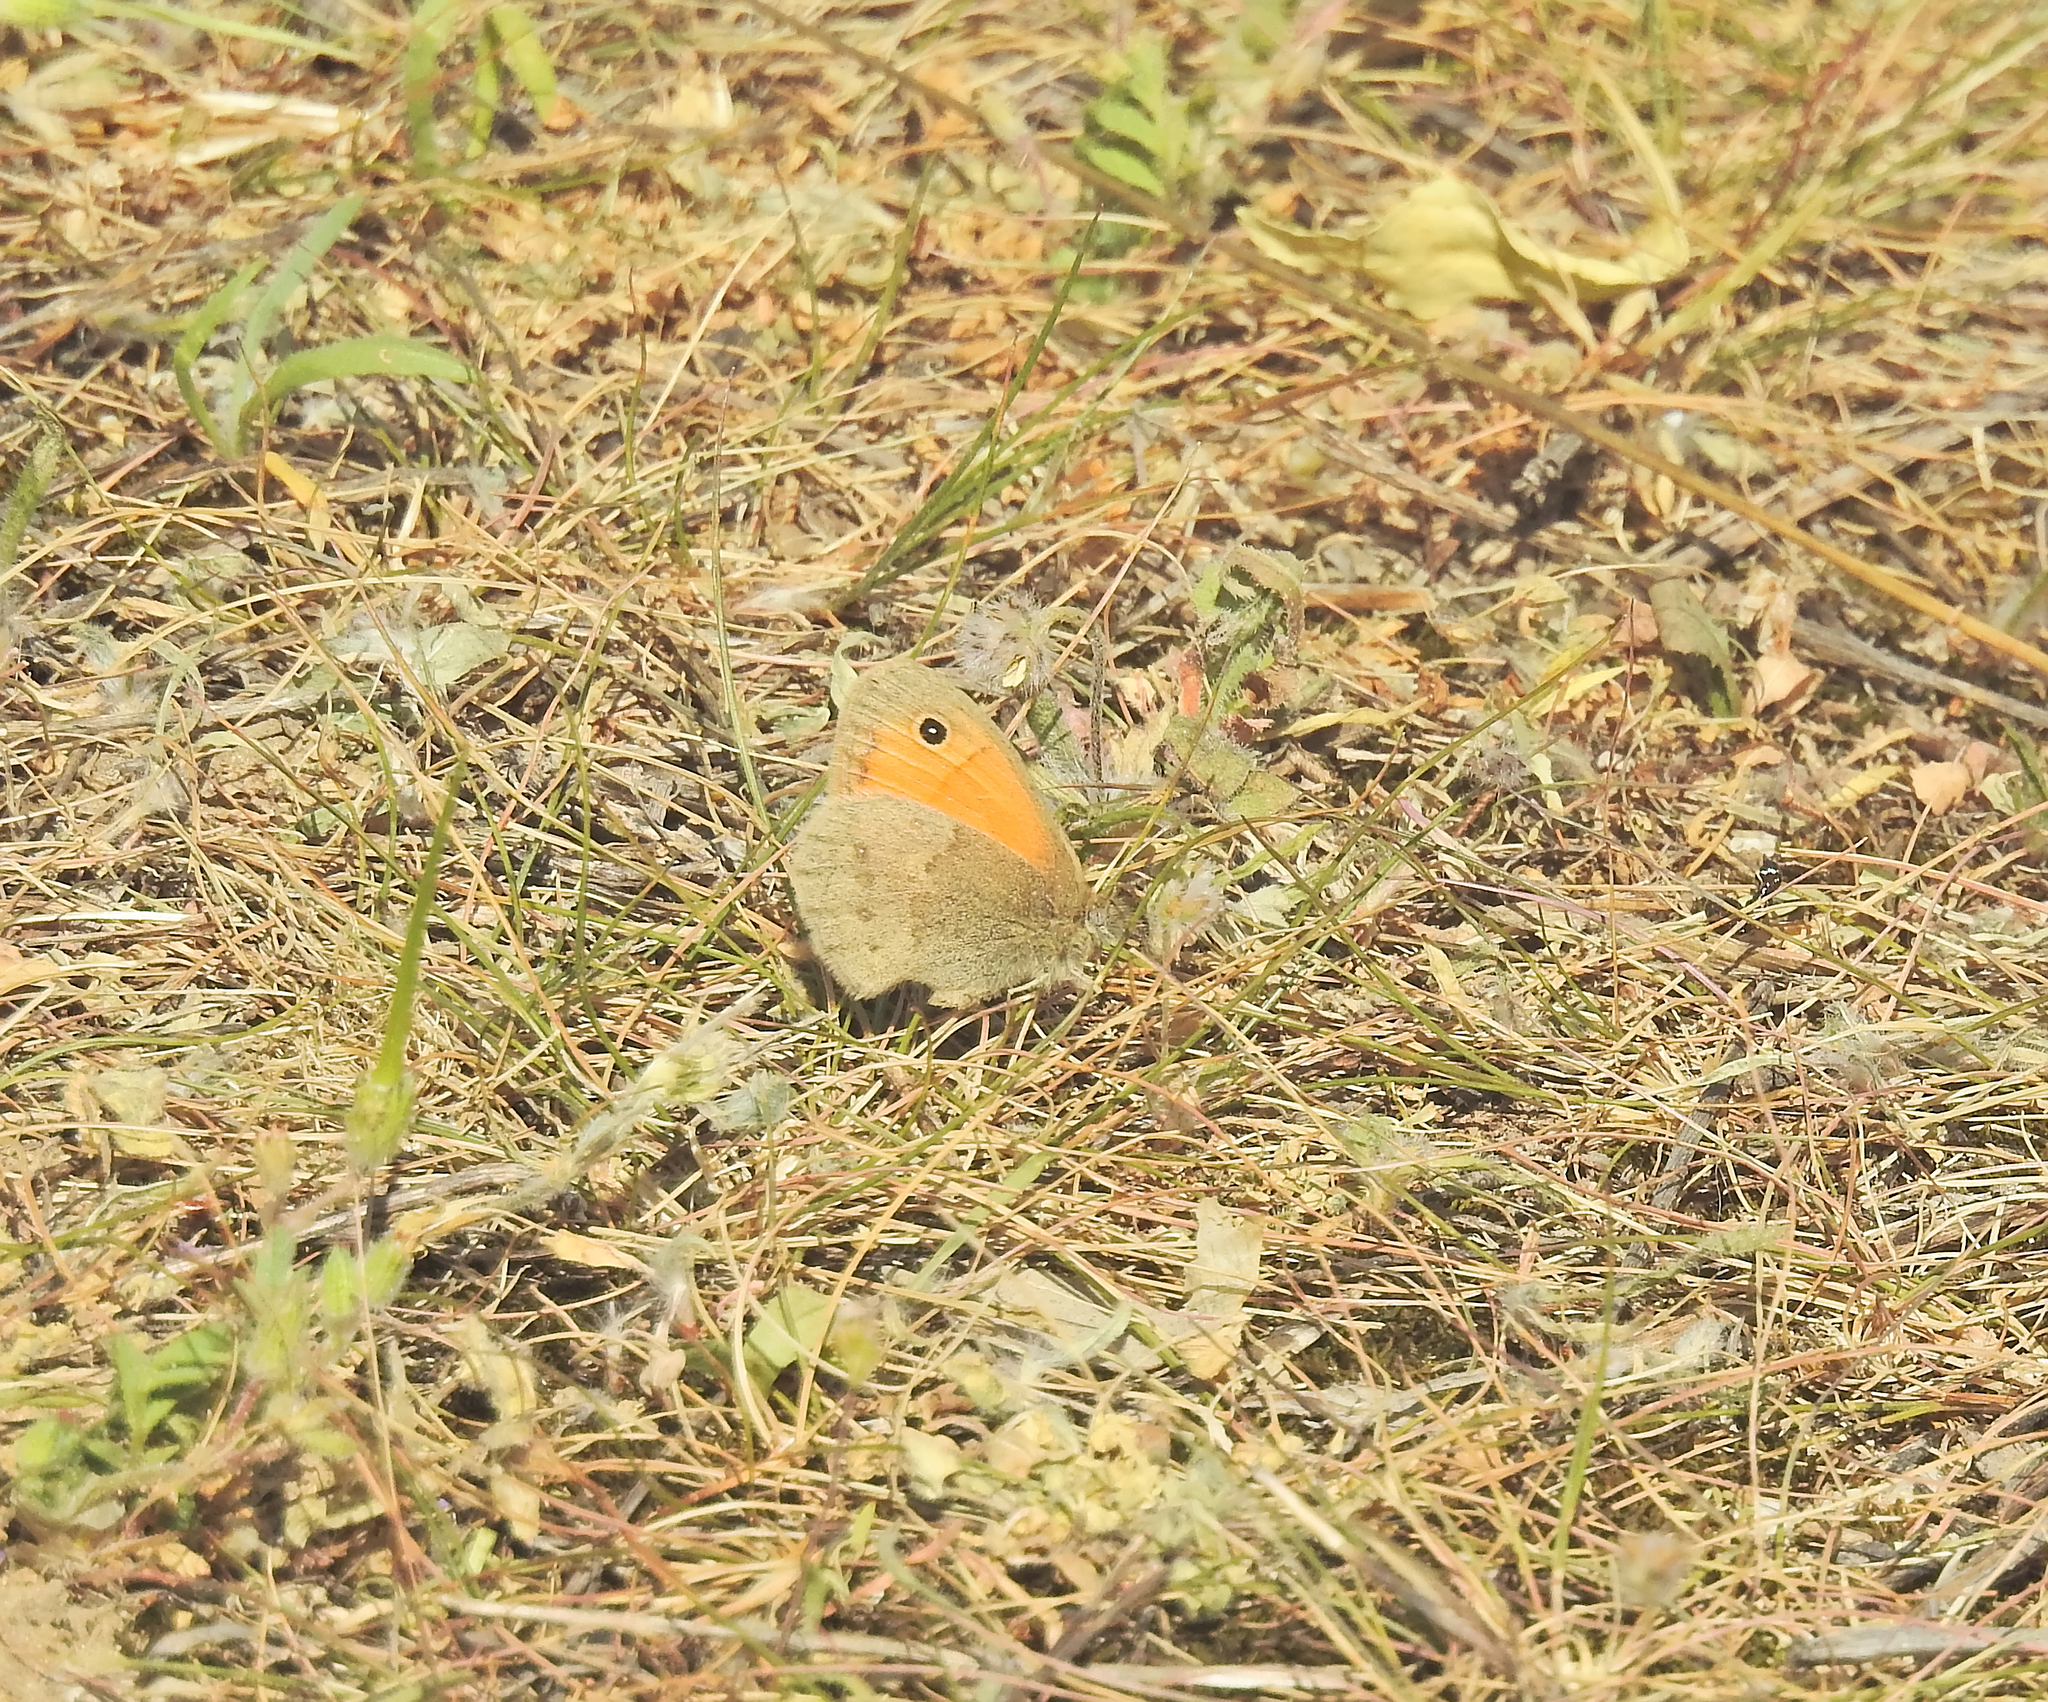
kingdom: Animalia
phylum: Arthropoda
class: Insecta
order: Lepidoptera
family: Nymphalidae
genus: Coenonympha
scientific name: Coenonympha pamphilus
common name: Small heath
